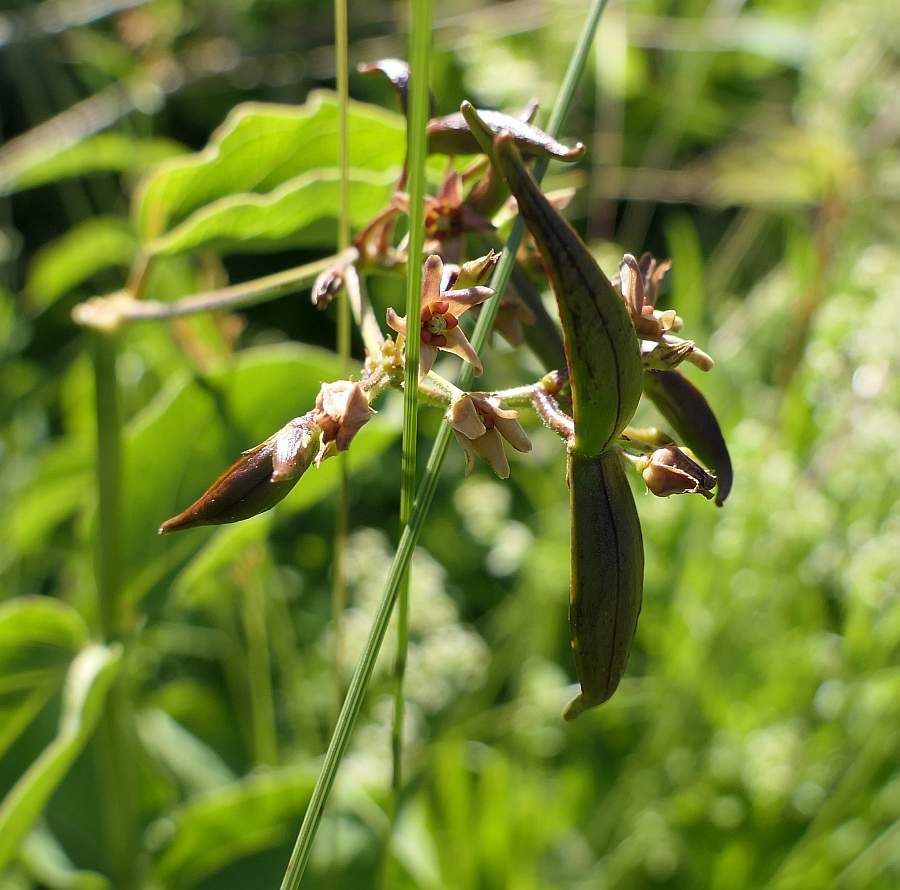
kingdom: Plantae
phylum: Tracheophyta
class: Magnoliopsida
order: Gentianales
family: Apocynaceae
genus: Vincetoxicum
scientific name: Vincetoxicum rossicum
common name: Dog-strangling vine
